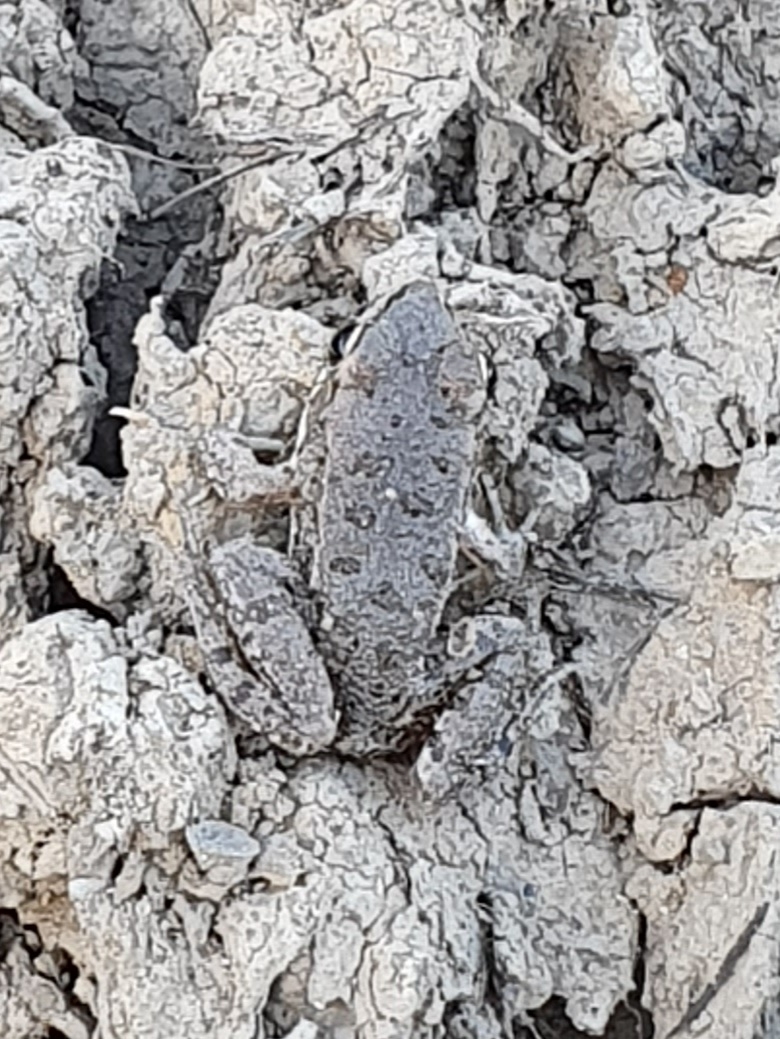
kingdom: Animalia
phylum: Chordata
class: Amphibia
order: Anura
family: Ranidae
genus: Pelophylax
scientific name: Pelophylax saharicus
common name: Sahara frog
